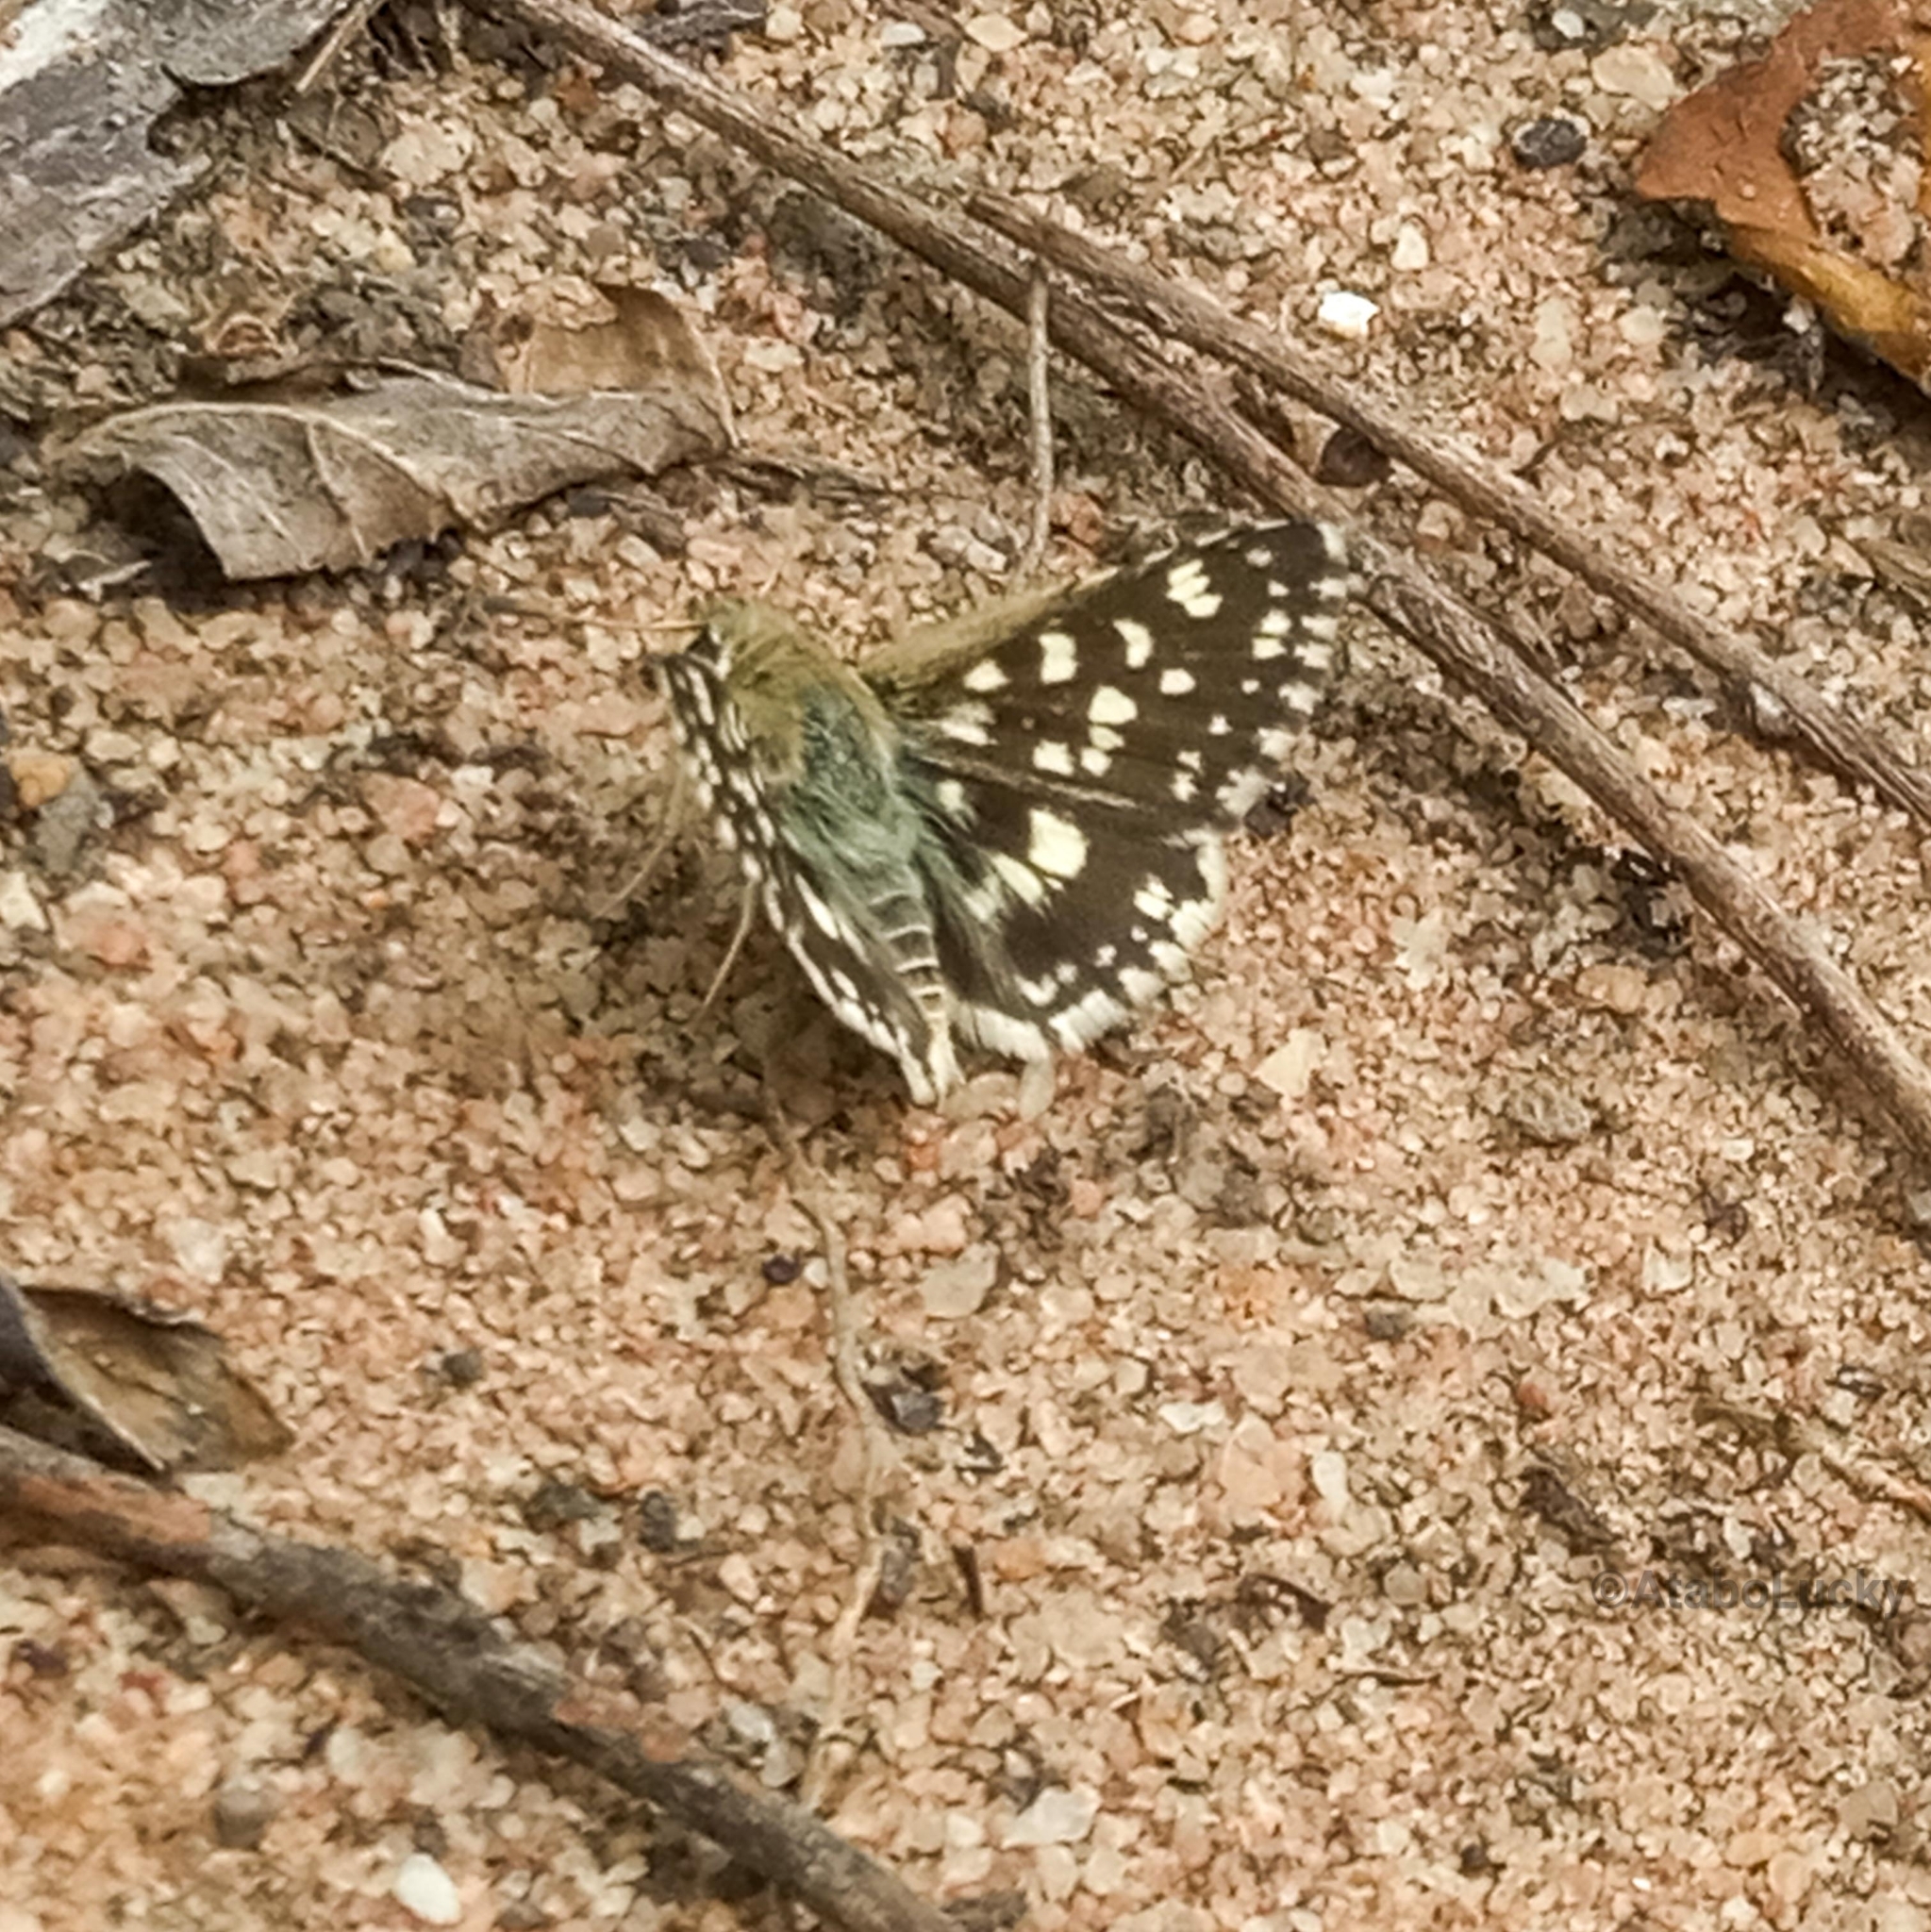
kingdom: Animalia
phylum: Arthropoda
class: Insecta
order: Lepidoptera
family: Hesperiidae
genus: Spialia
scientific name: Spialia diomus
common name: Common sandman
